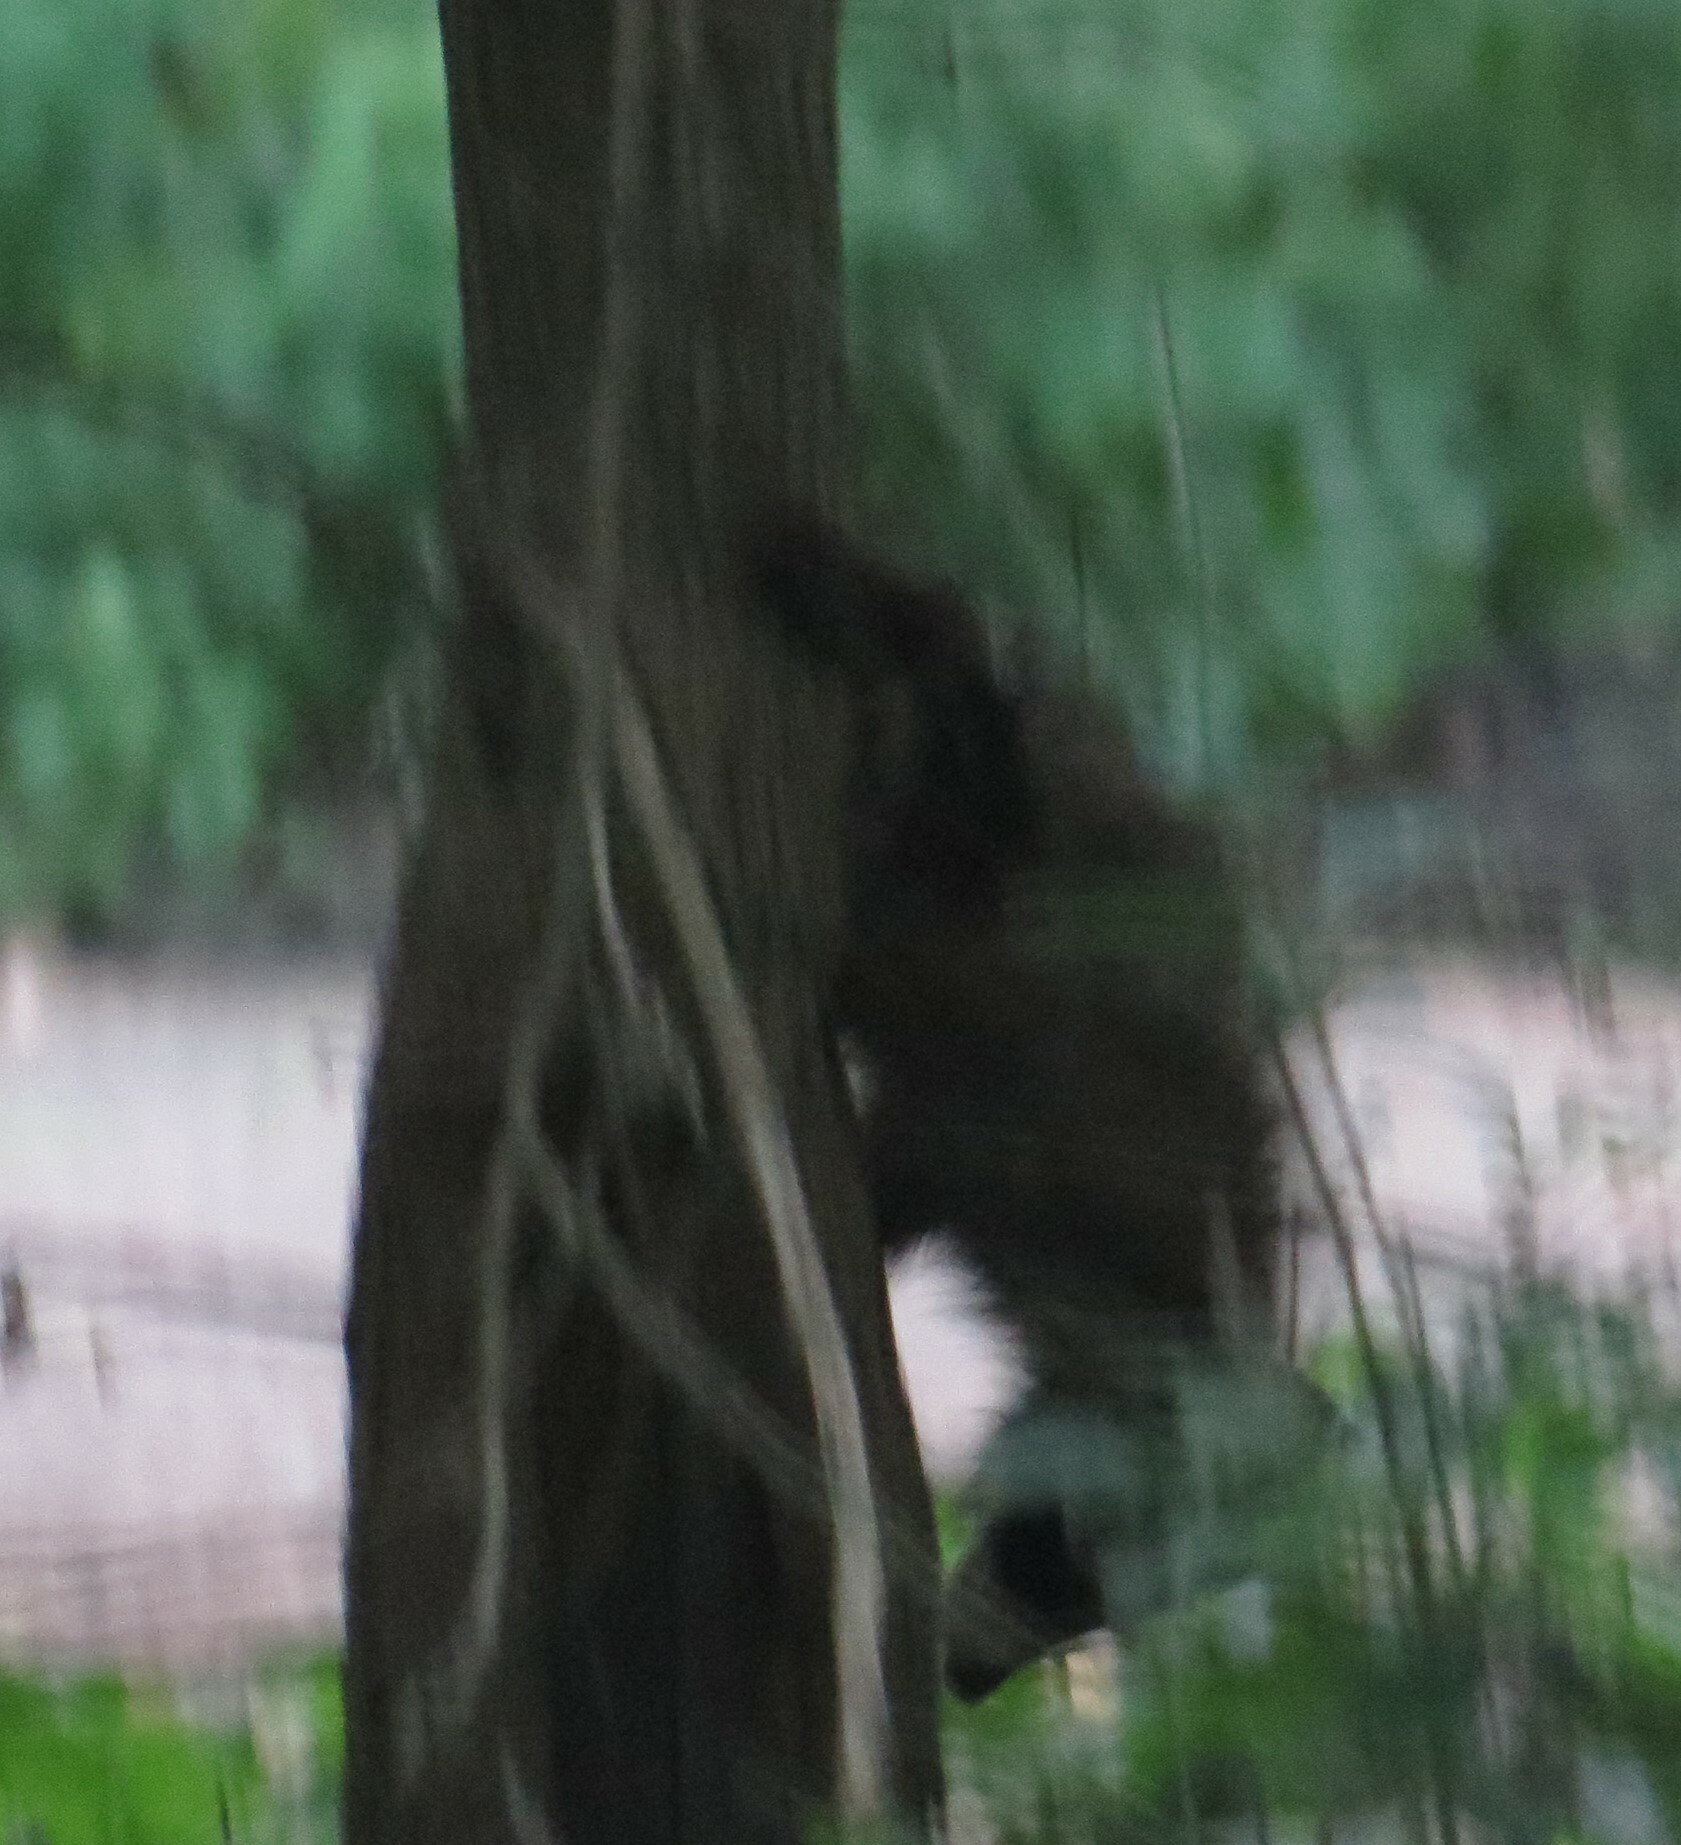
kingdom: Animalia
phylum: Chordata
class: Mammalia
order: Carnivora
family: Procyonidae
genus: Procyon
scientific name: Procyon lotor
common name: Raccoon
